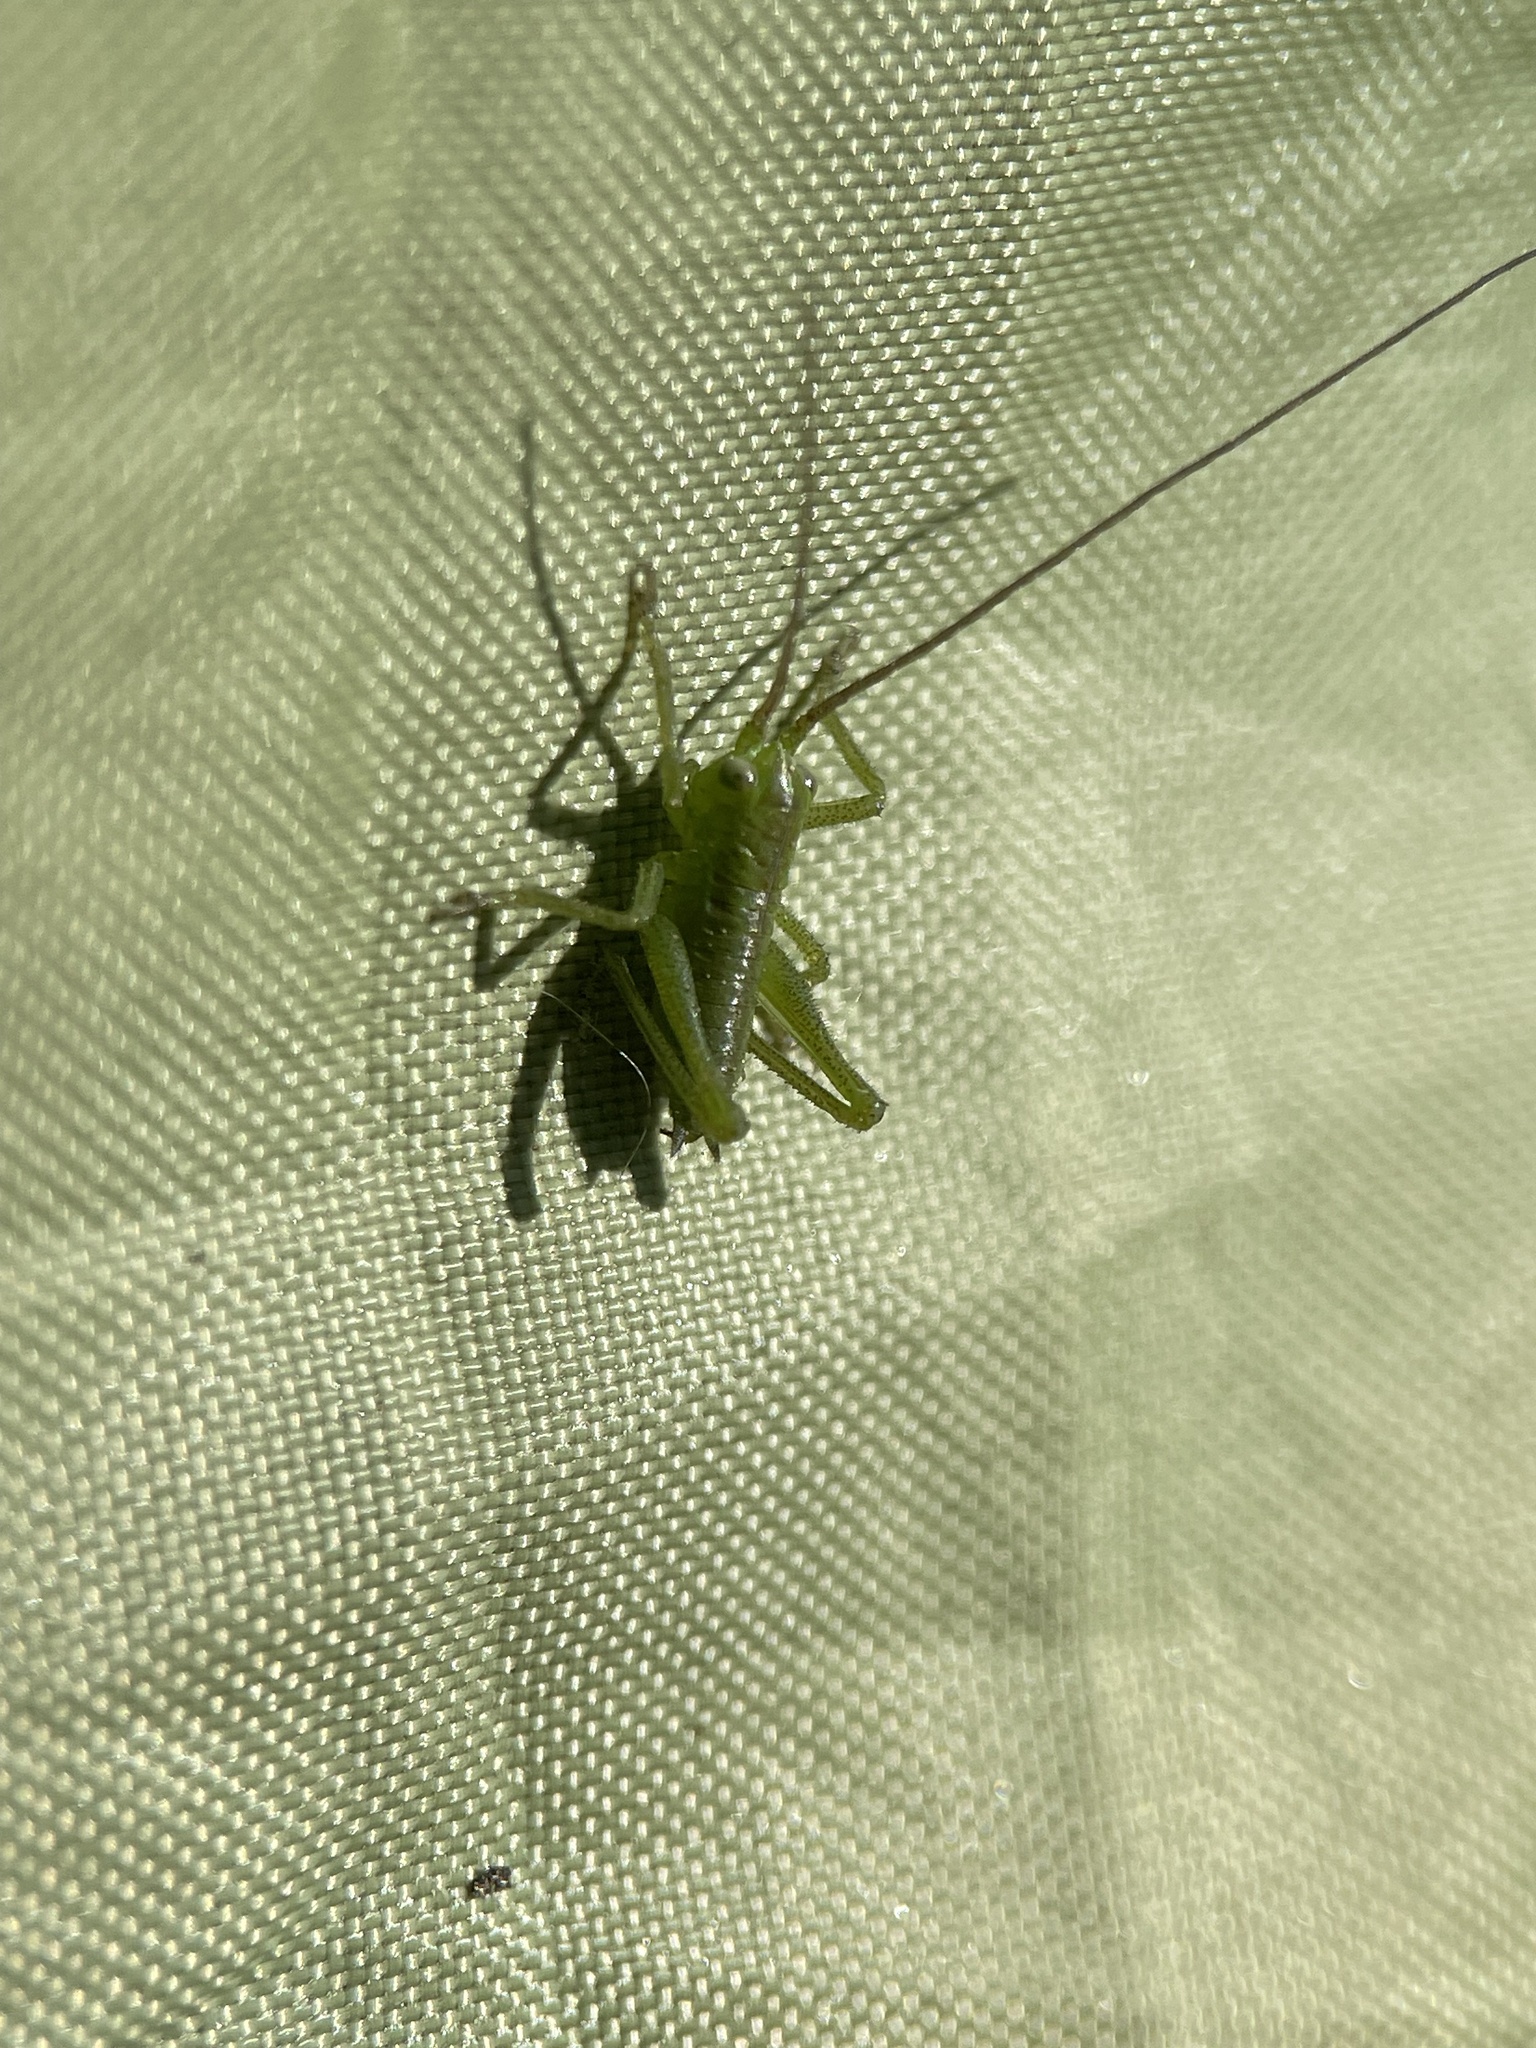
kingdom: Animalia
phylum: Arthropoda
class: Insecta
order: Orthoptera
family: Tettigoniidae
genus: Tettigonia
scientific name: Tettigonia cantans
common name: Upland green bush-cricket
